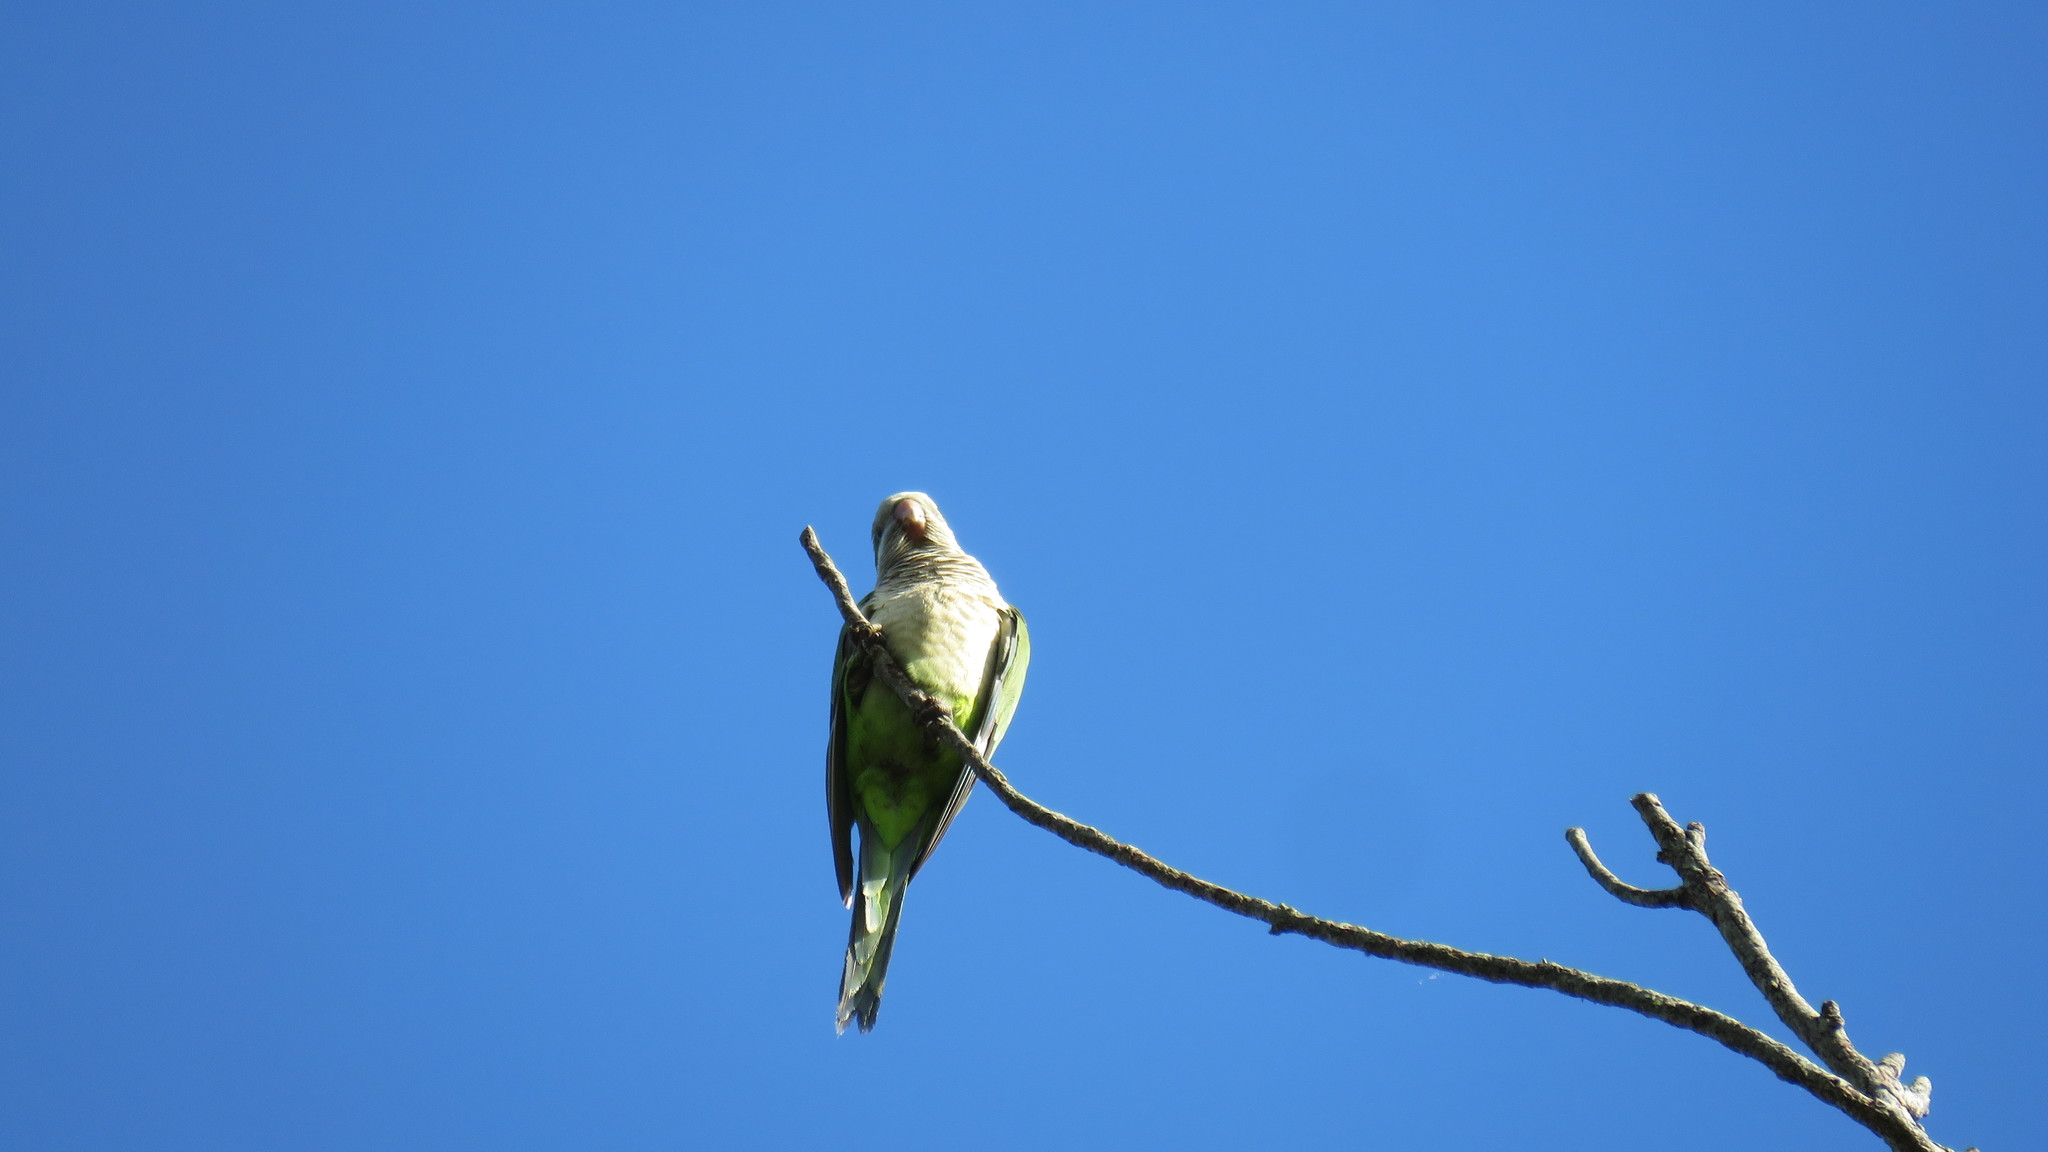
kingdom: Animalia
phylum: Chordata
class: Aves
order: Psittaciformes
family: Psittacidae
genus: Myiopsitta
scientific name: Myiopsitta monachus
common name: Monk parakeet
